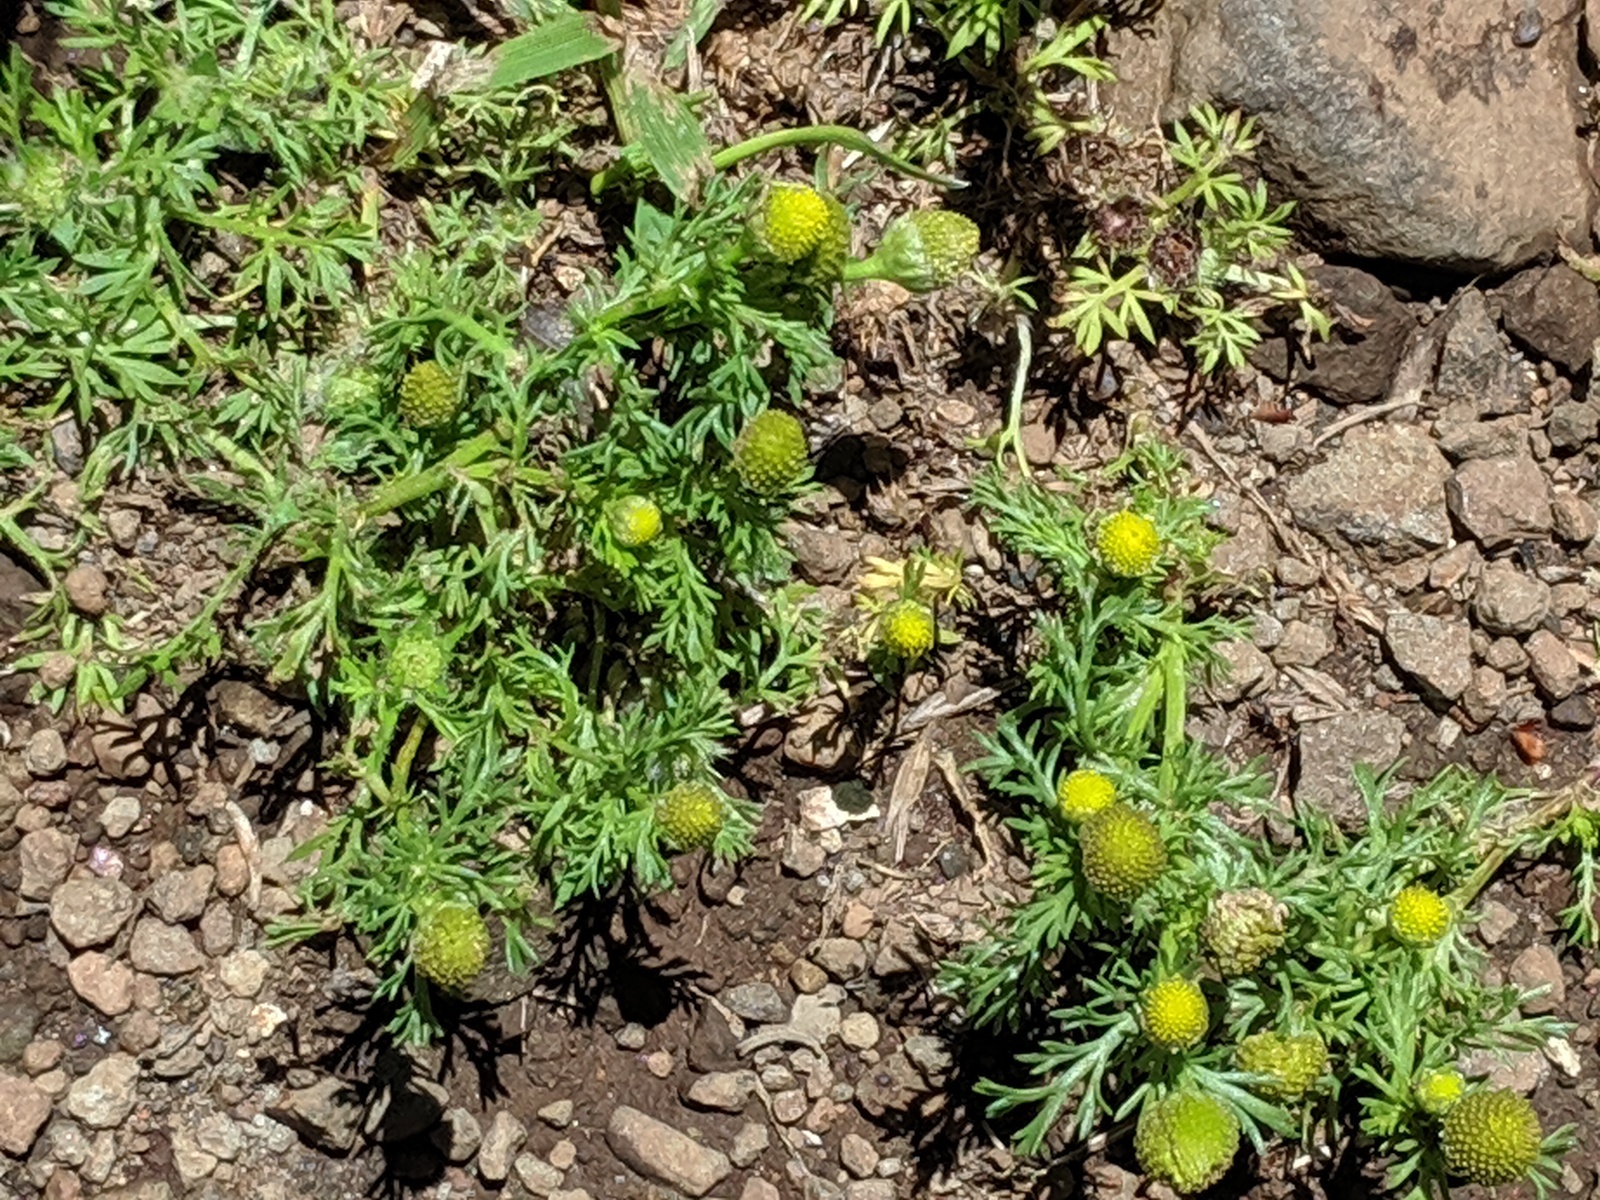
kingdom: Plantae
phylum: Tracheophyta
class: Magnoliopsida
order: Asterales
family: Asteraceae
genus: Matricaria
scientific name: Matricaria discoidea
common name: Disc mayweed
